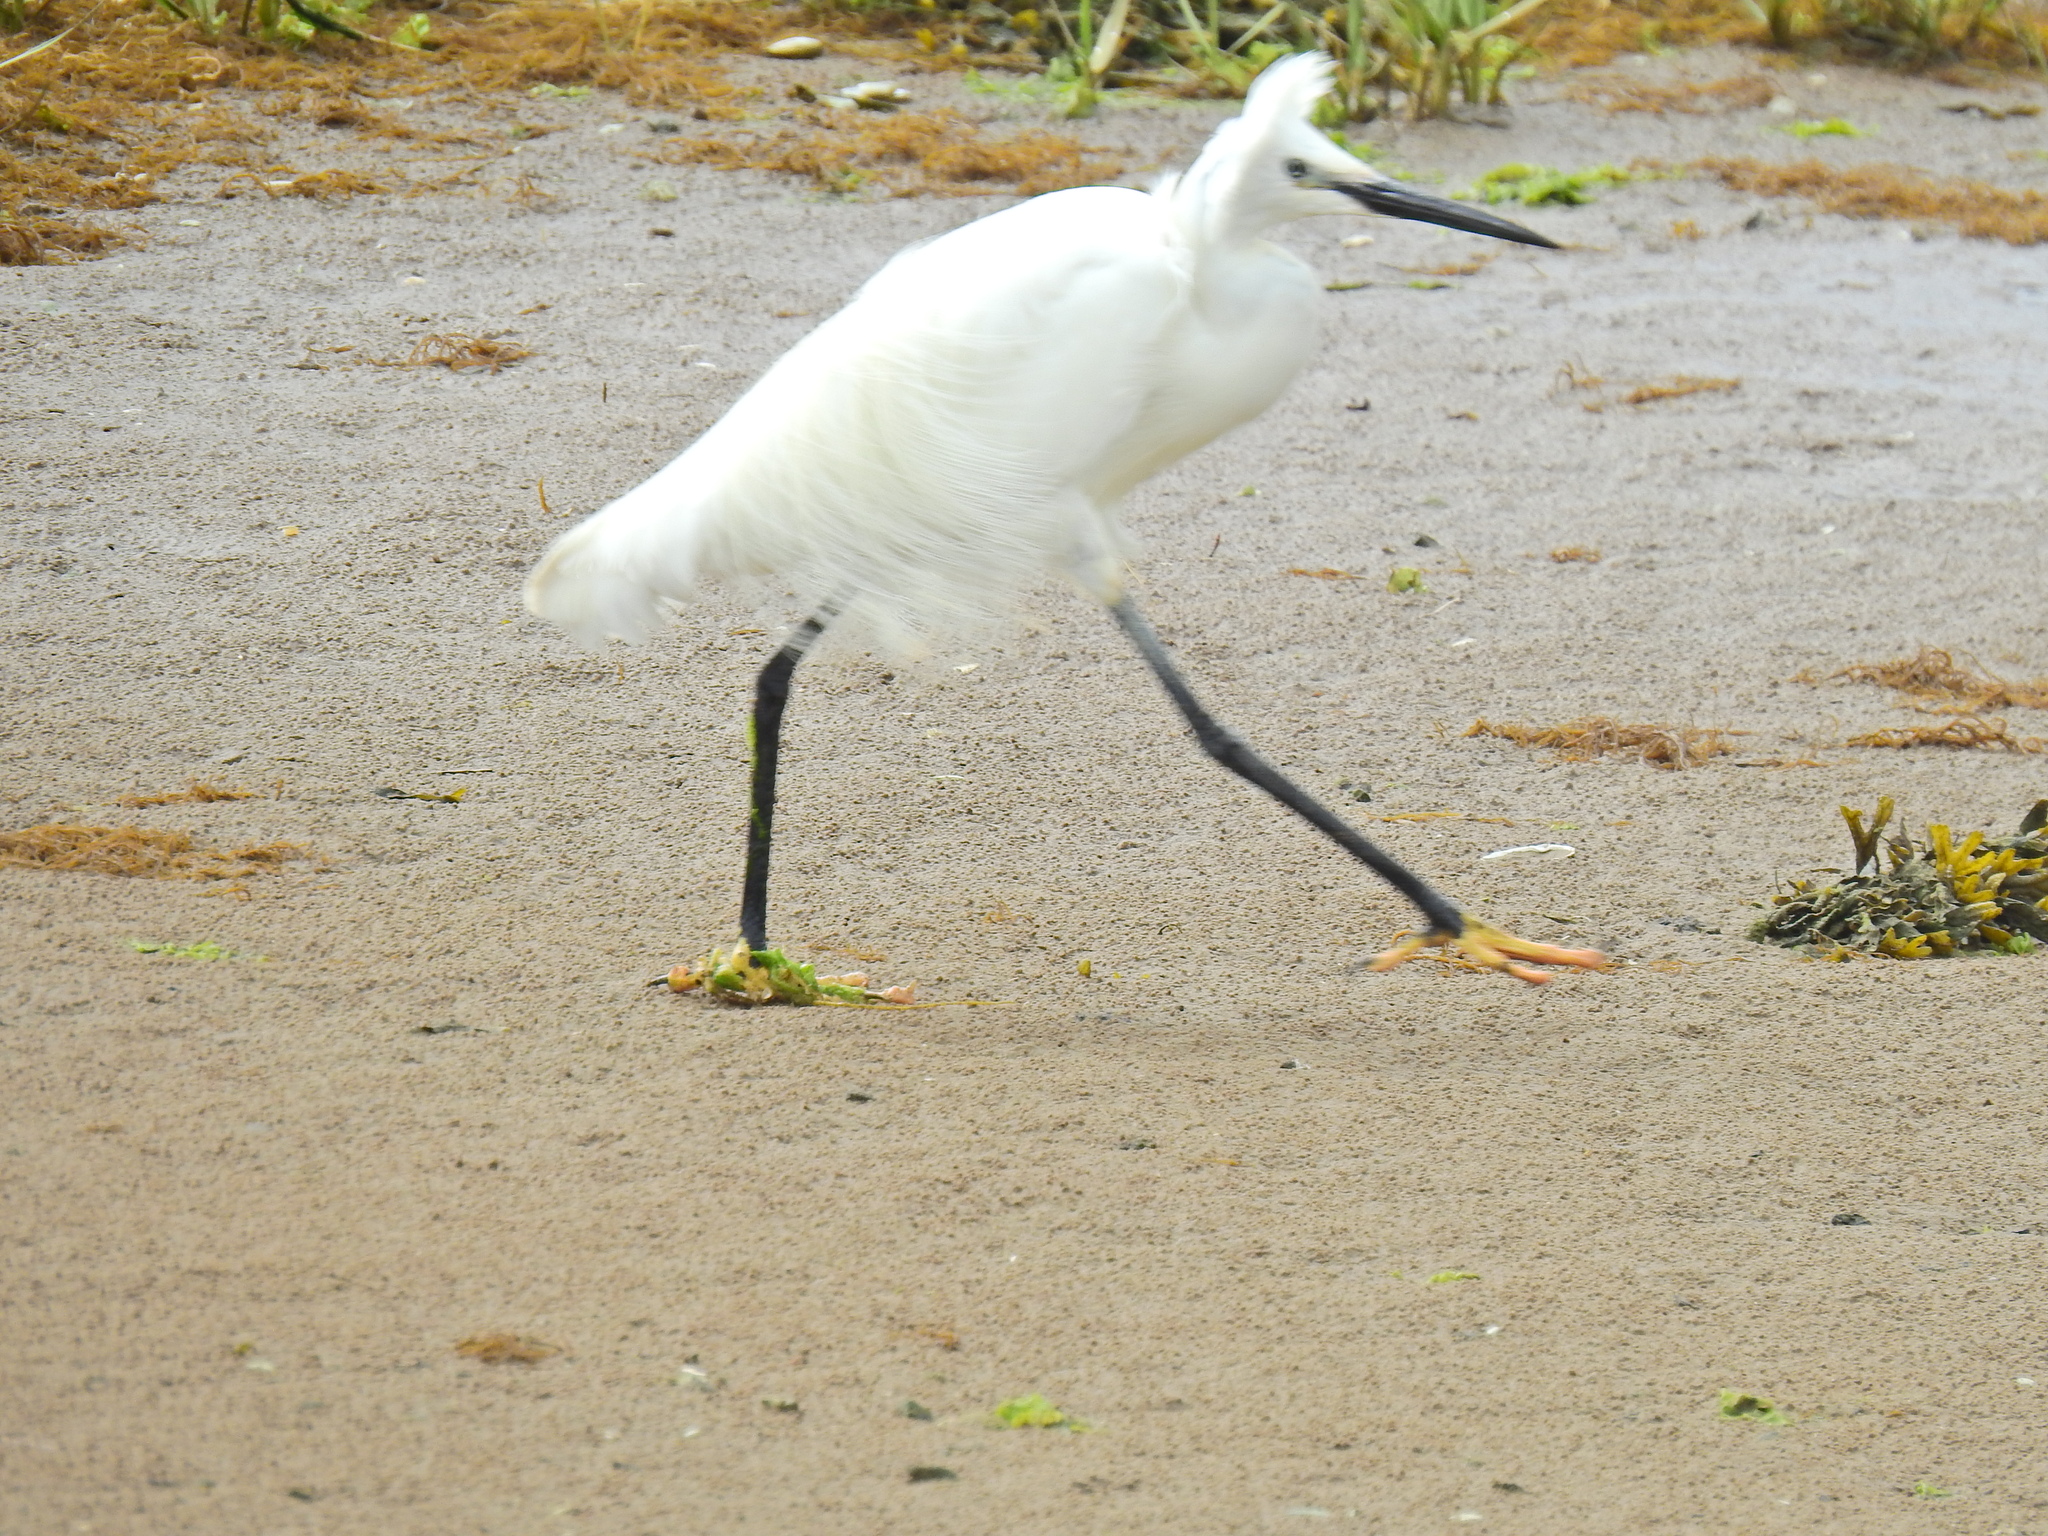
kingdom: Animalia
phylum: Chordata
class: Aves
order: Pelecaniformes
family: Ardeidae
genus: Egretta
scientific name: Egretta garzetta
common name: Little egret
